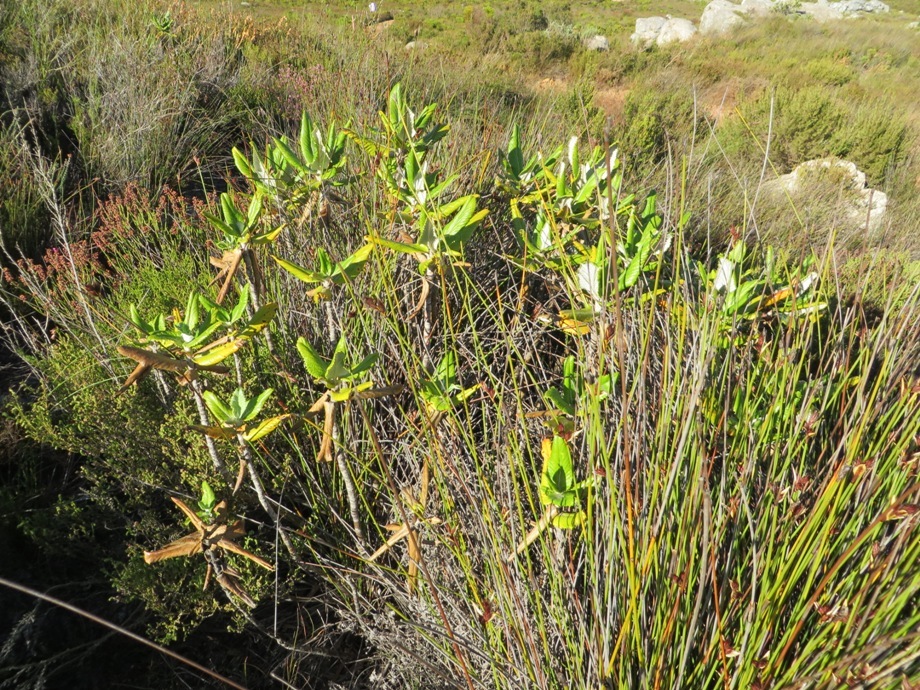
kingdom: Plantae
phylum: Tracheophyta
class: Magnoliopsida
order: Apiales
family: Apiaceae
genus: Hermas
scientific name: Hermas villosa
